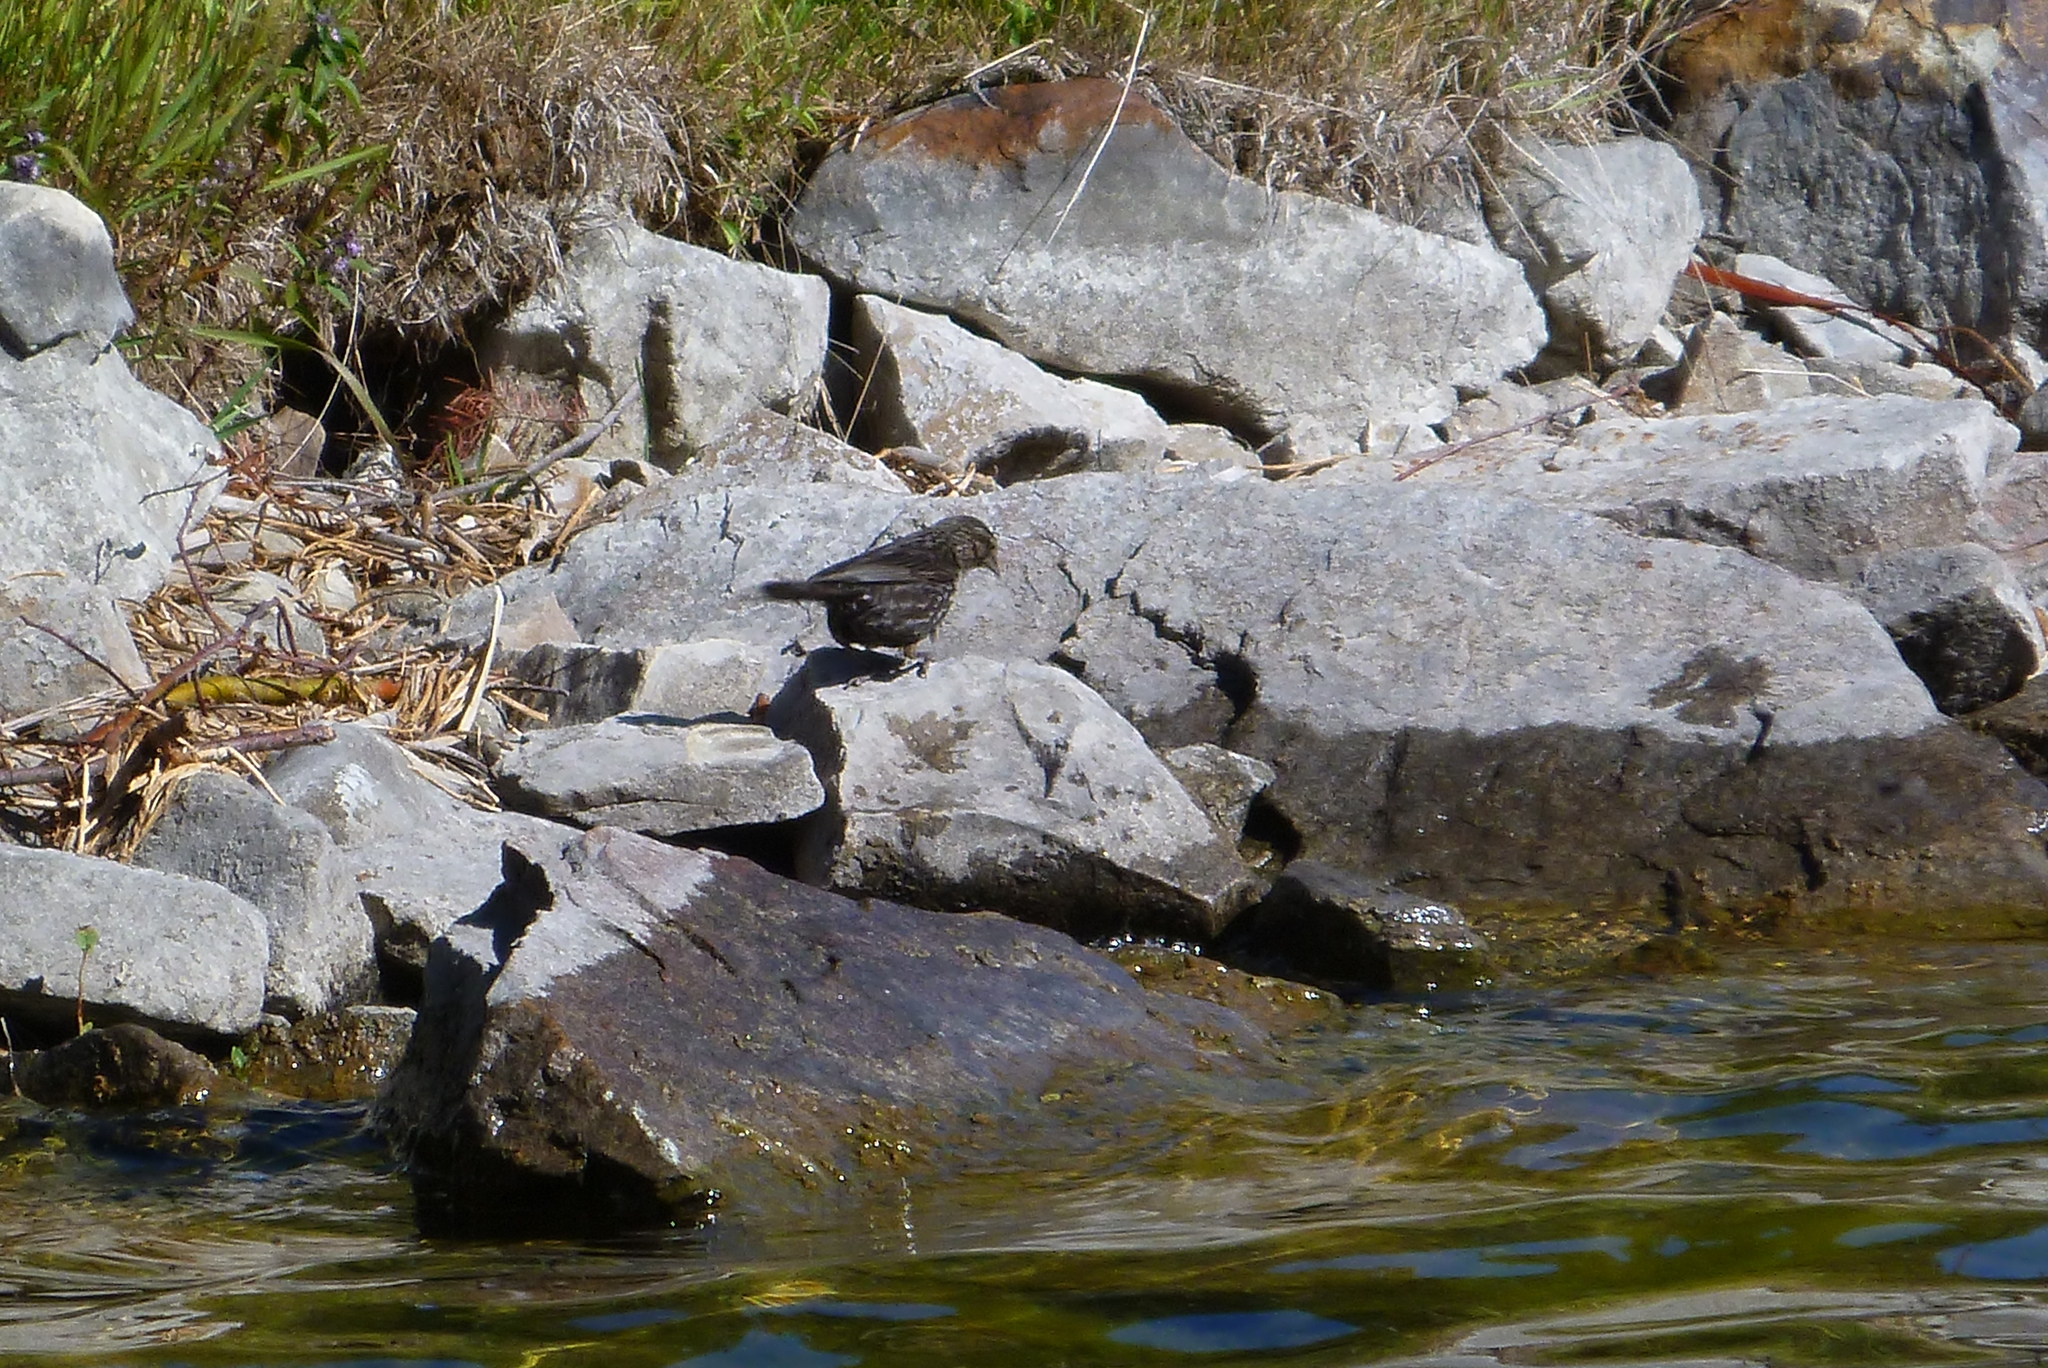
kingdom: Animalia
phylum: Chordata
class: Aves
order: Passeriformes
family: Icteridae
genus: Agelaius
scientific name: Agelaius phoeniceus
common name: Red-winged blackbird
